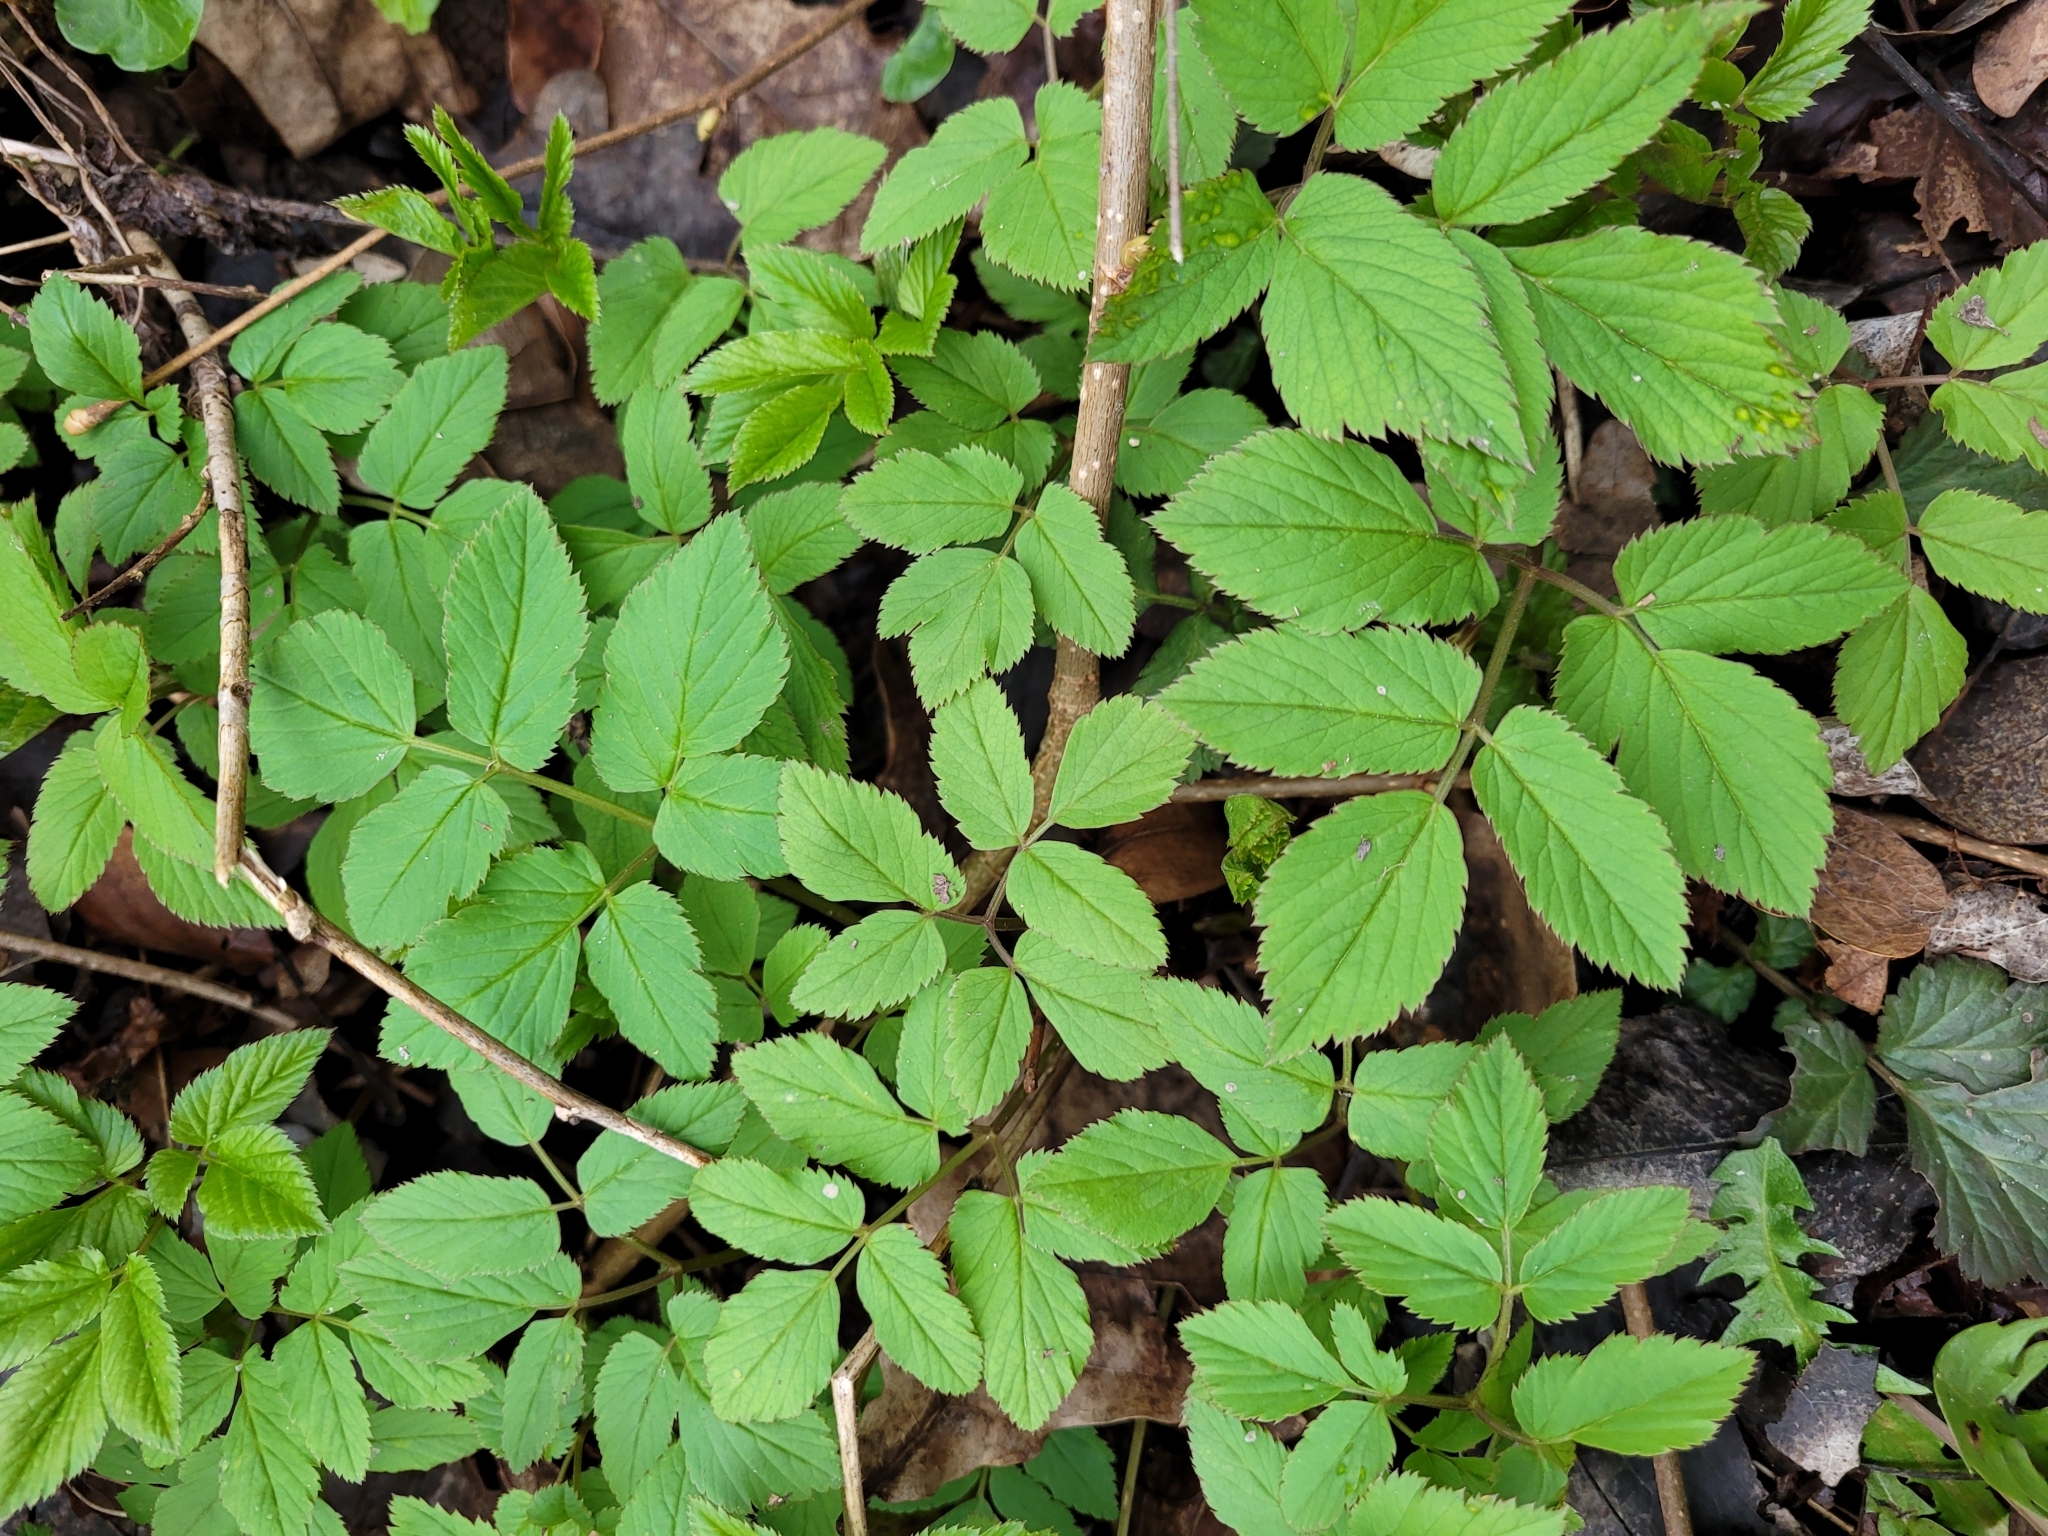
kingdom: Plantae
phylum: Tracheophyta
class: Magnoliopsida
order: Apiales
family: Apiaceae
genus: Aegopodium
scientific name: Aegopodium podagraria
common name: Ground-elder
